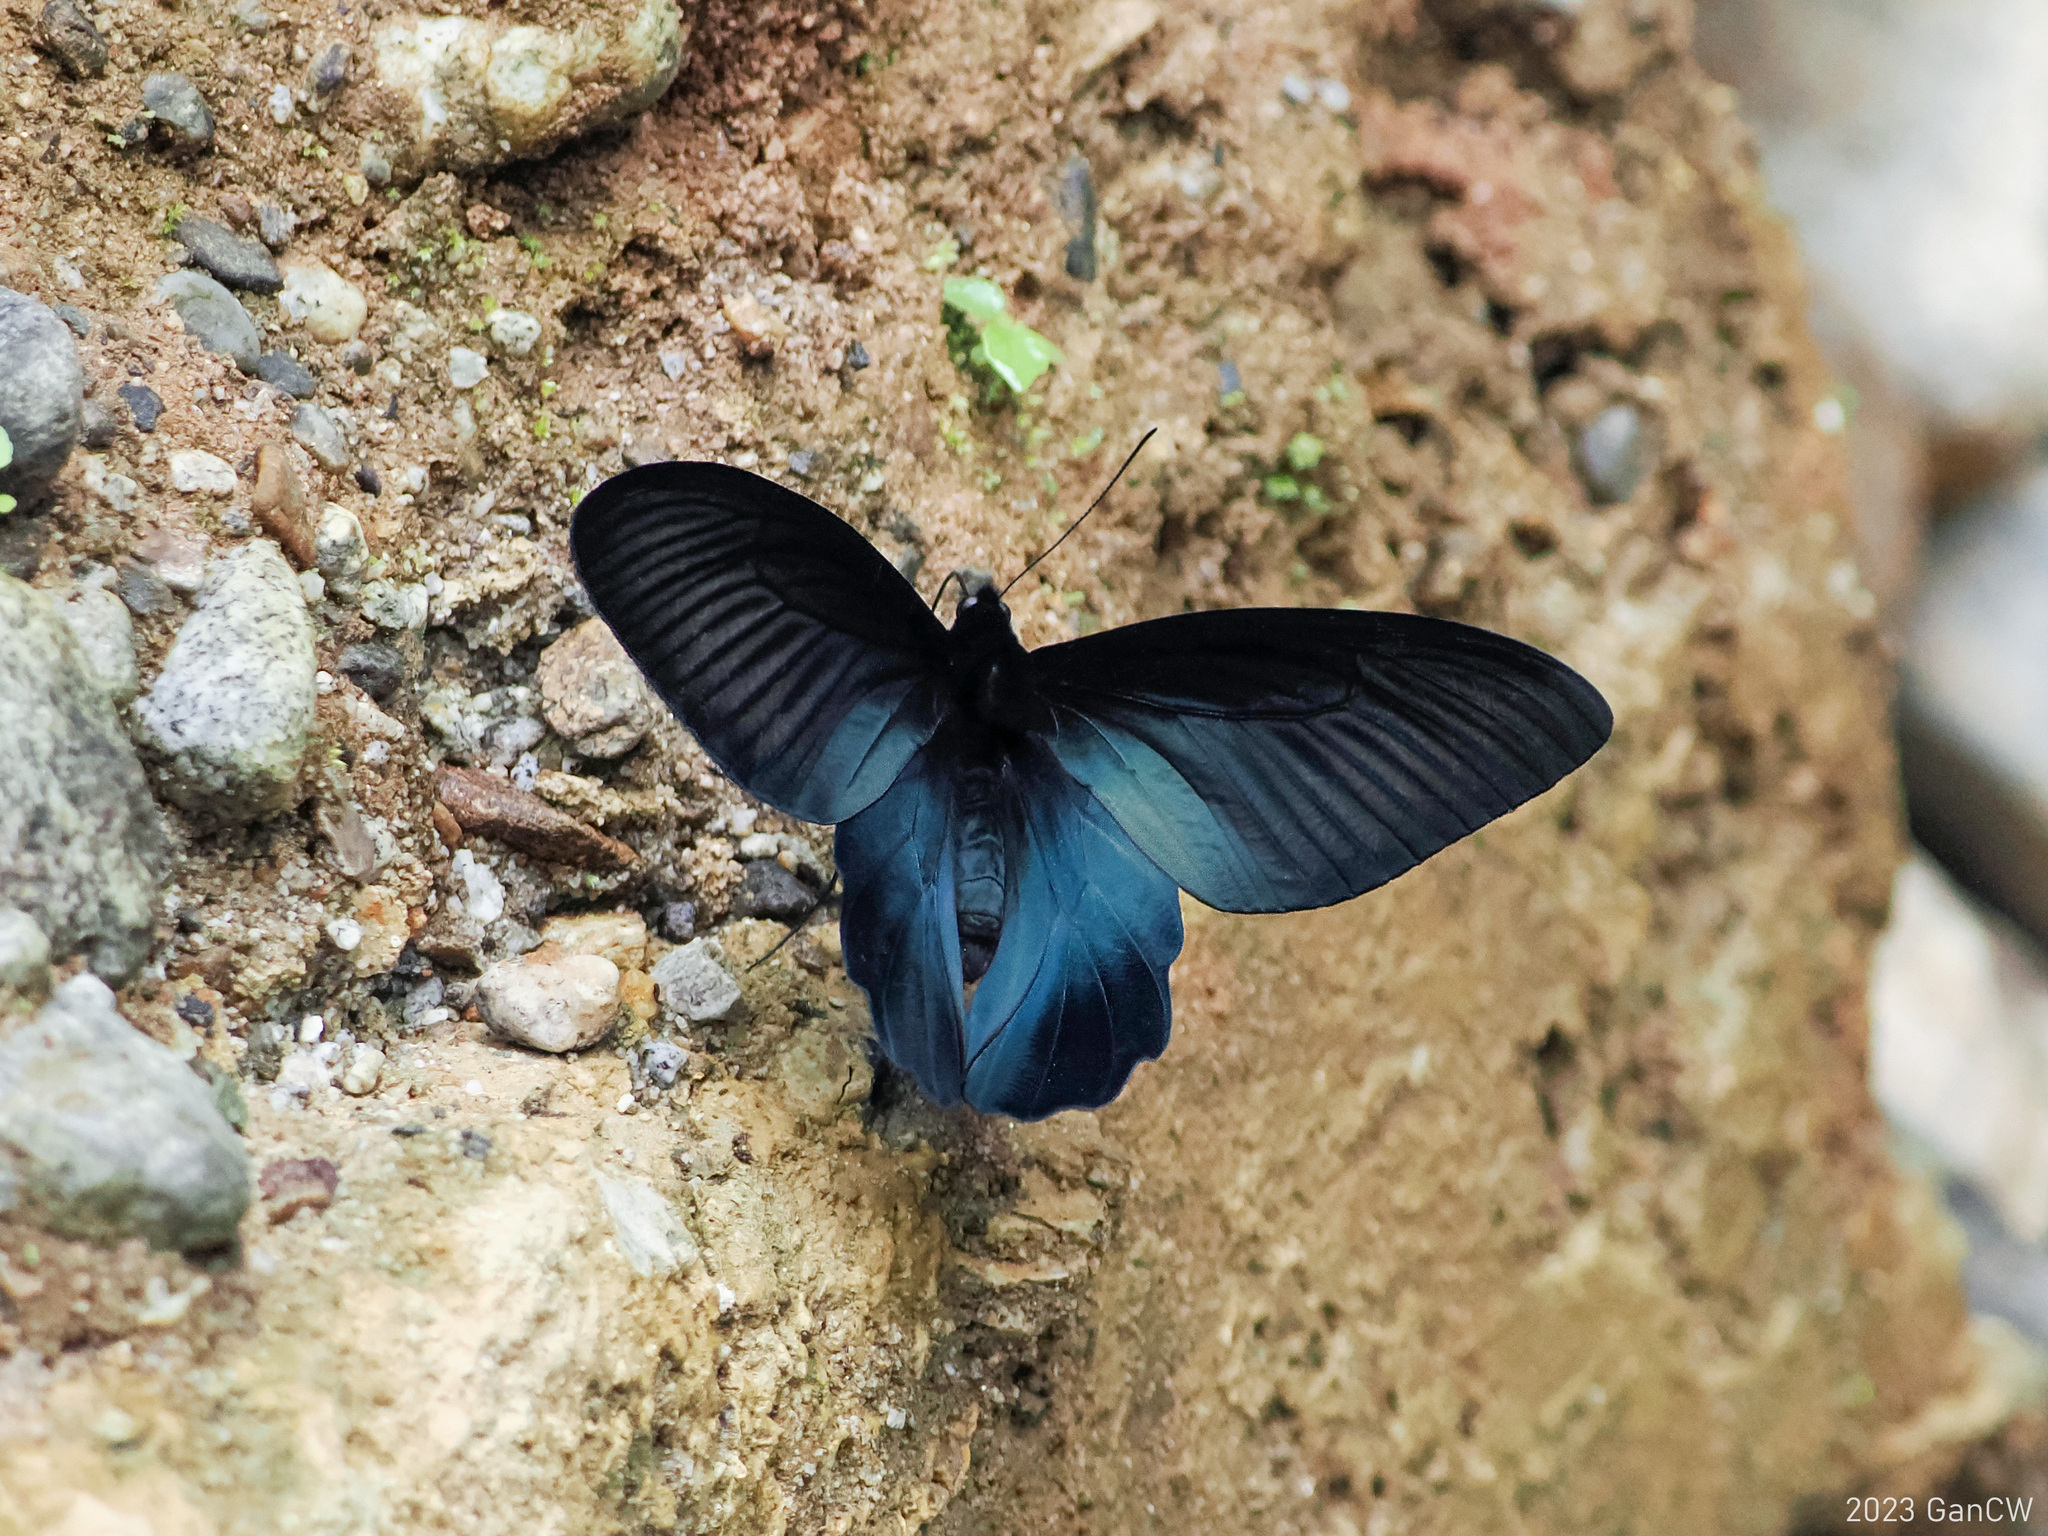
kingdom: Animalia
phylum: Arthropoda
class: Insecta
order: Lepidoptera
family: Papilionidae
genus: Atrophaneura
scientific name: Atrophaneura dixoni
